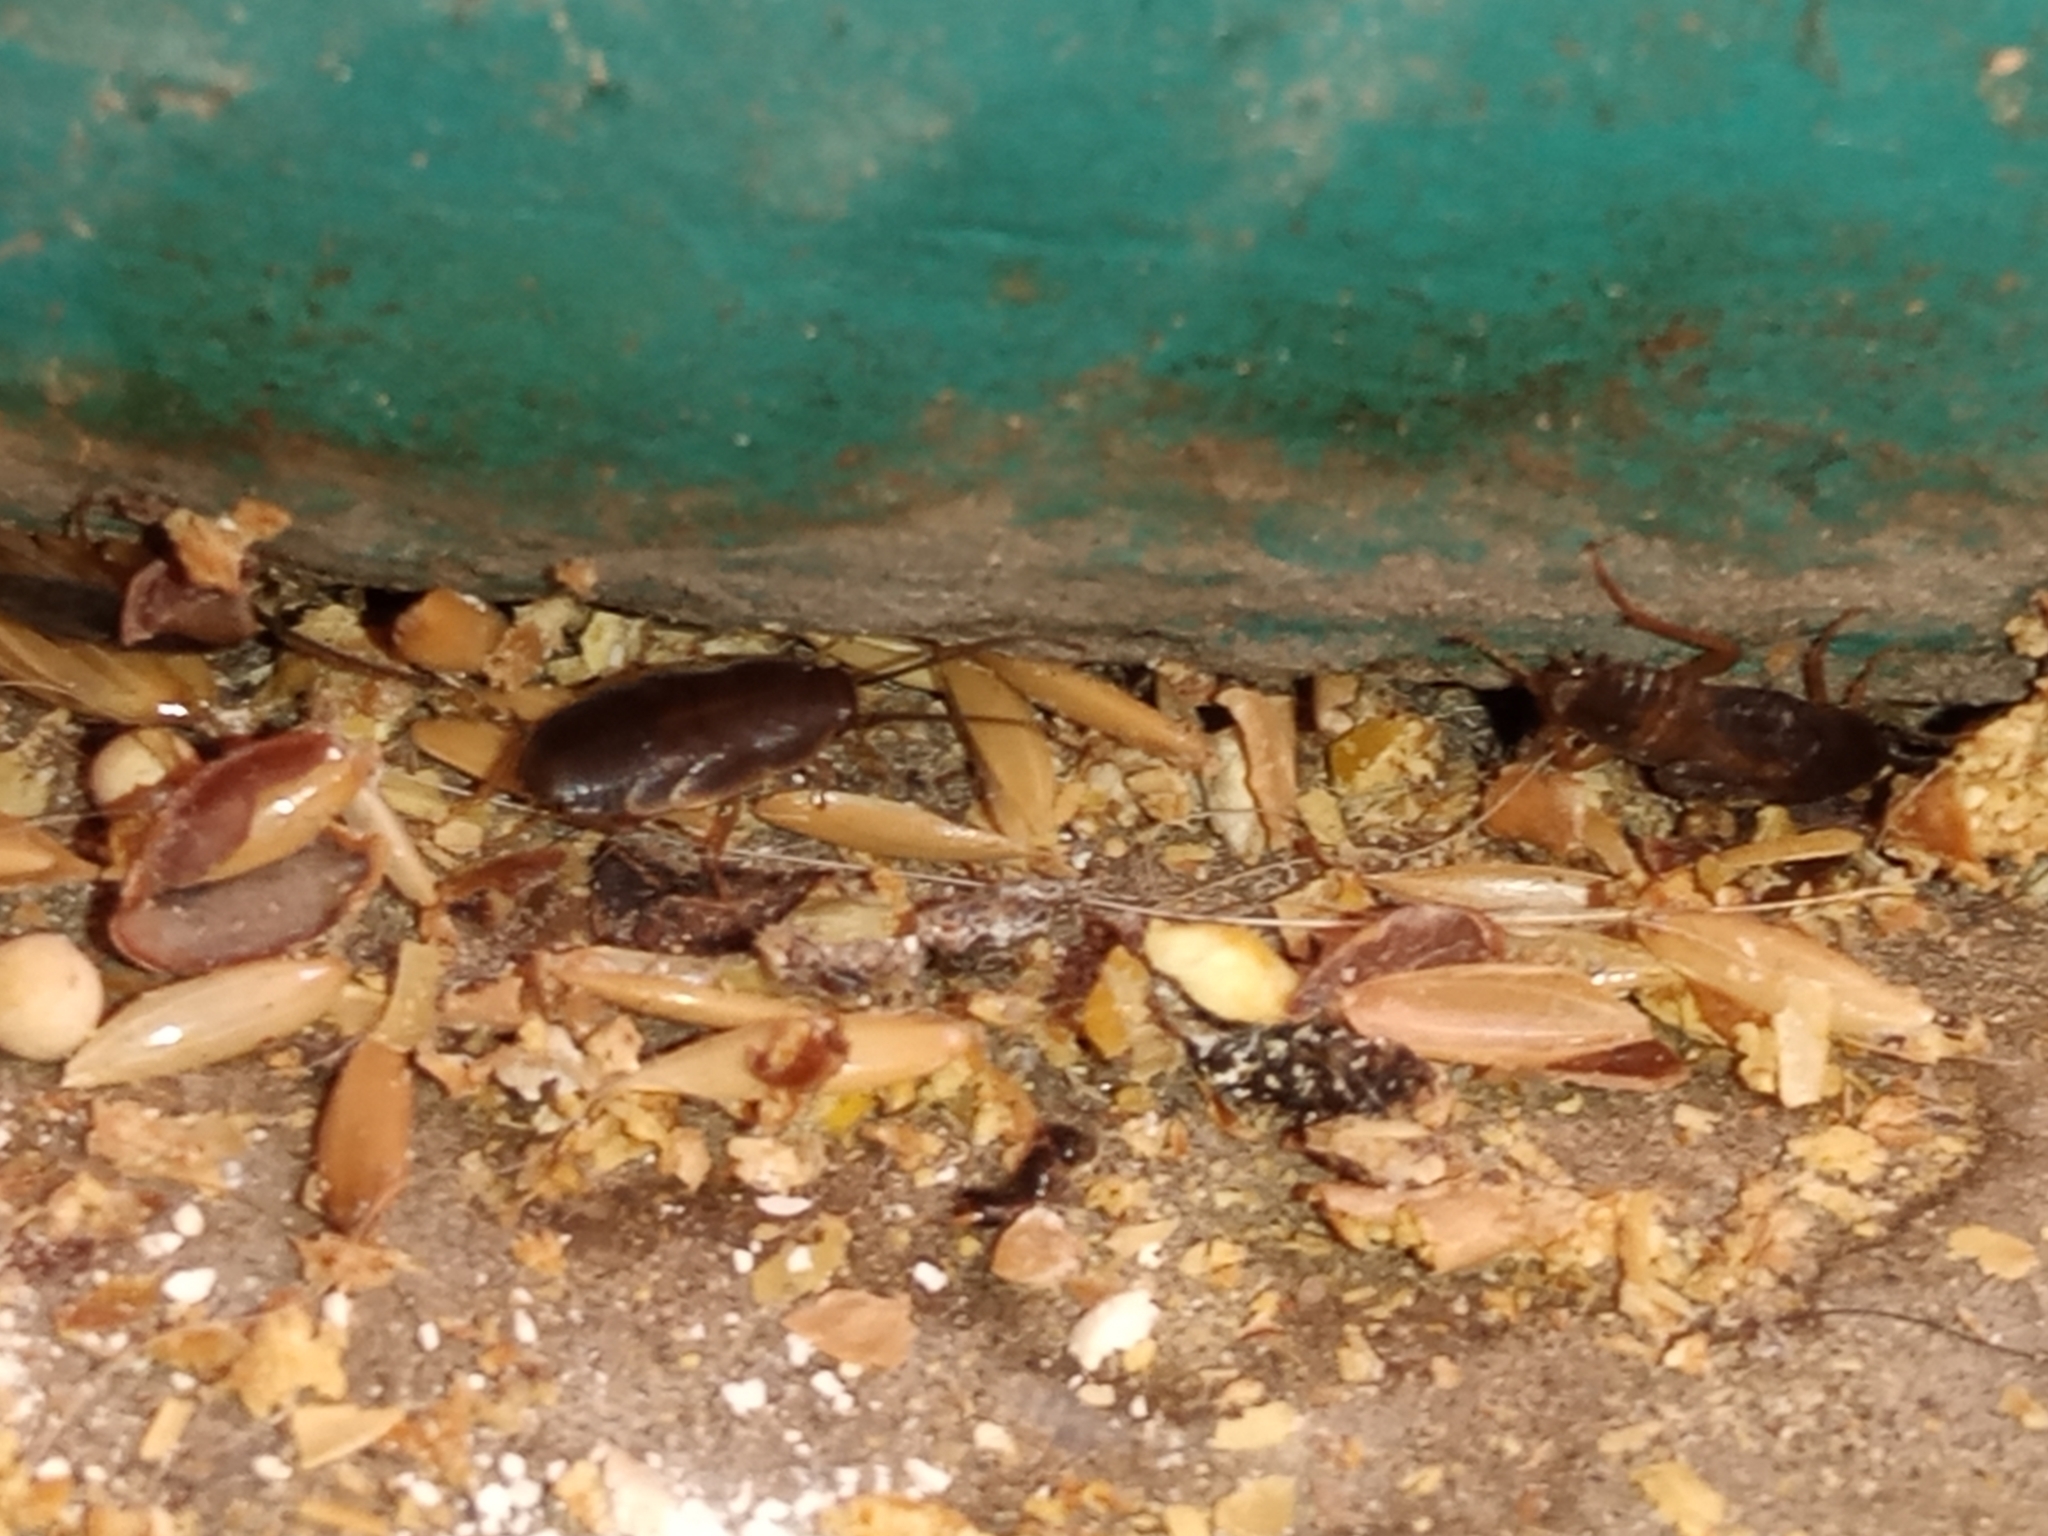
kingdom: Animalia
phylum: Arthropoda
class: Insecta
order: Blattodea
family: Corydiidae
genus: Myrmecoblatta
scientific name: Myrmecoblatta hebardi
